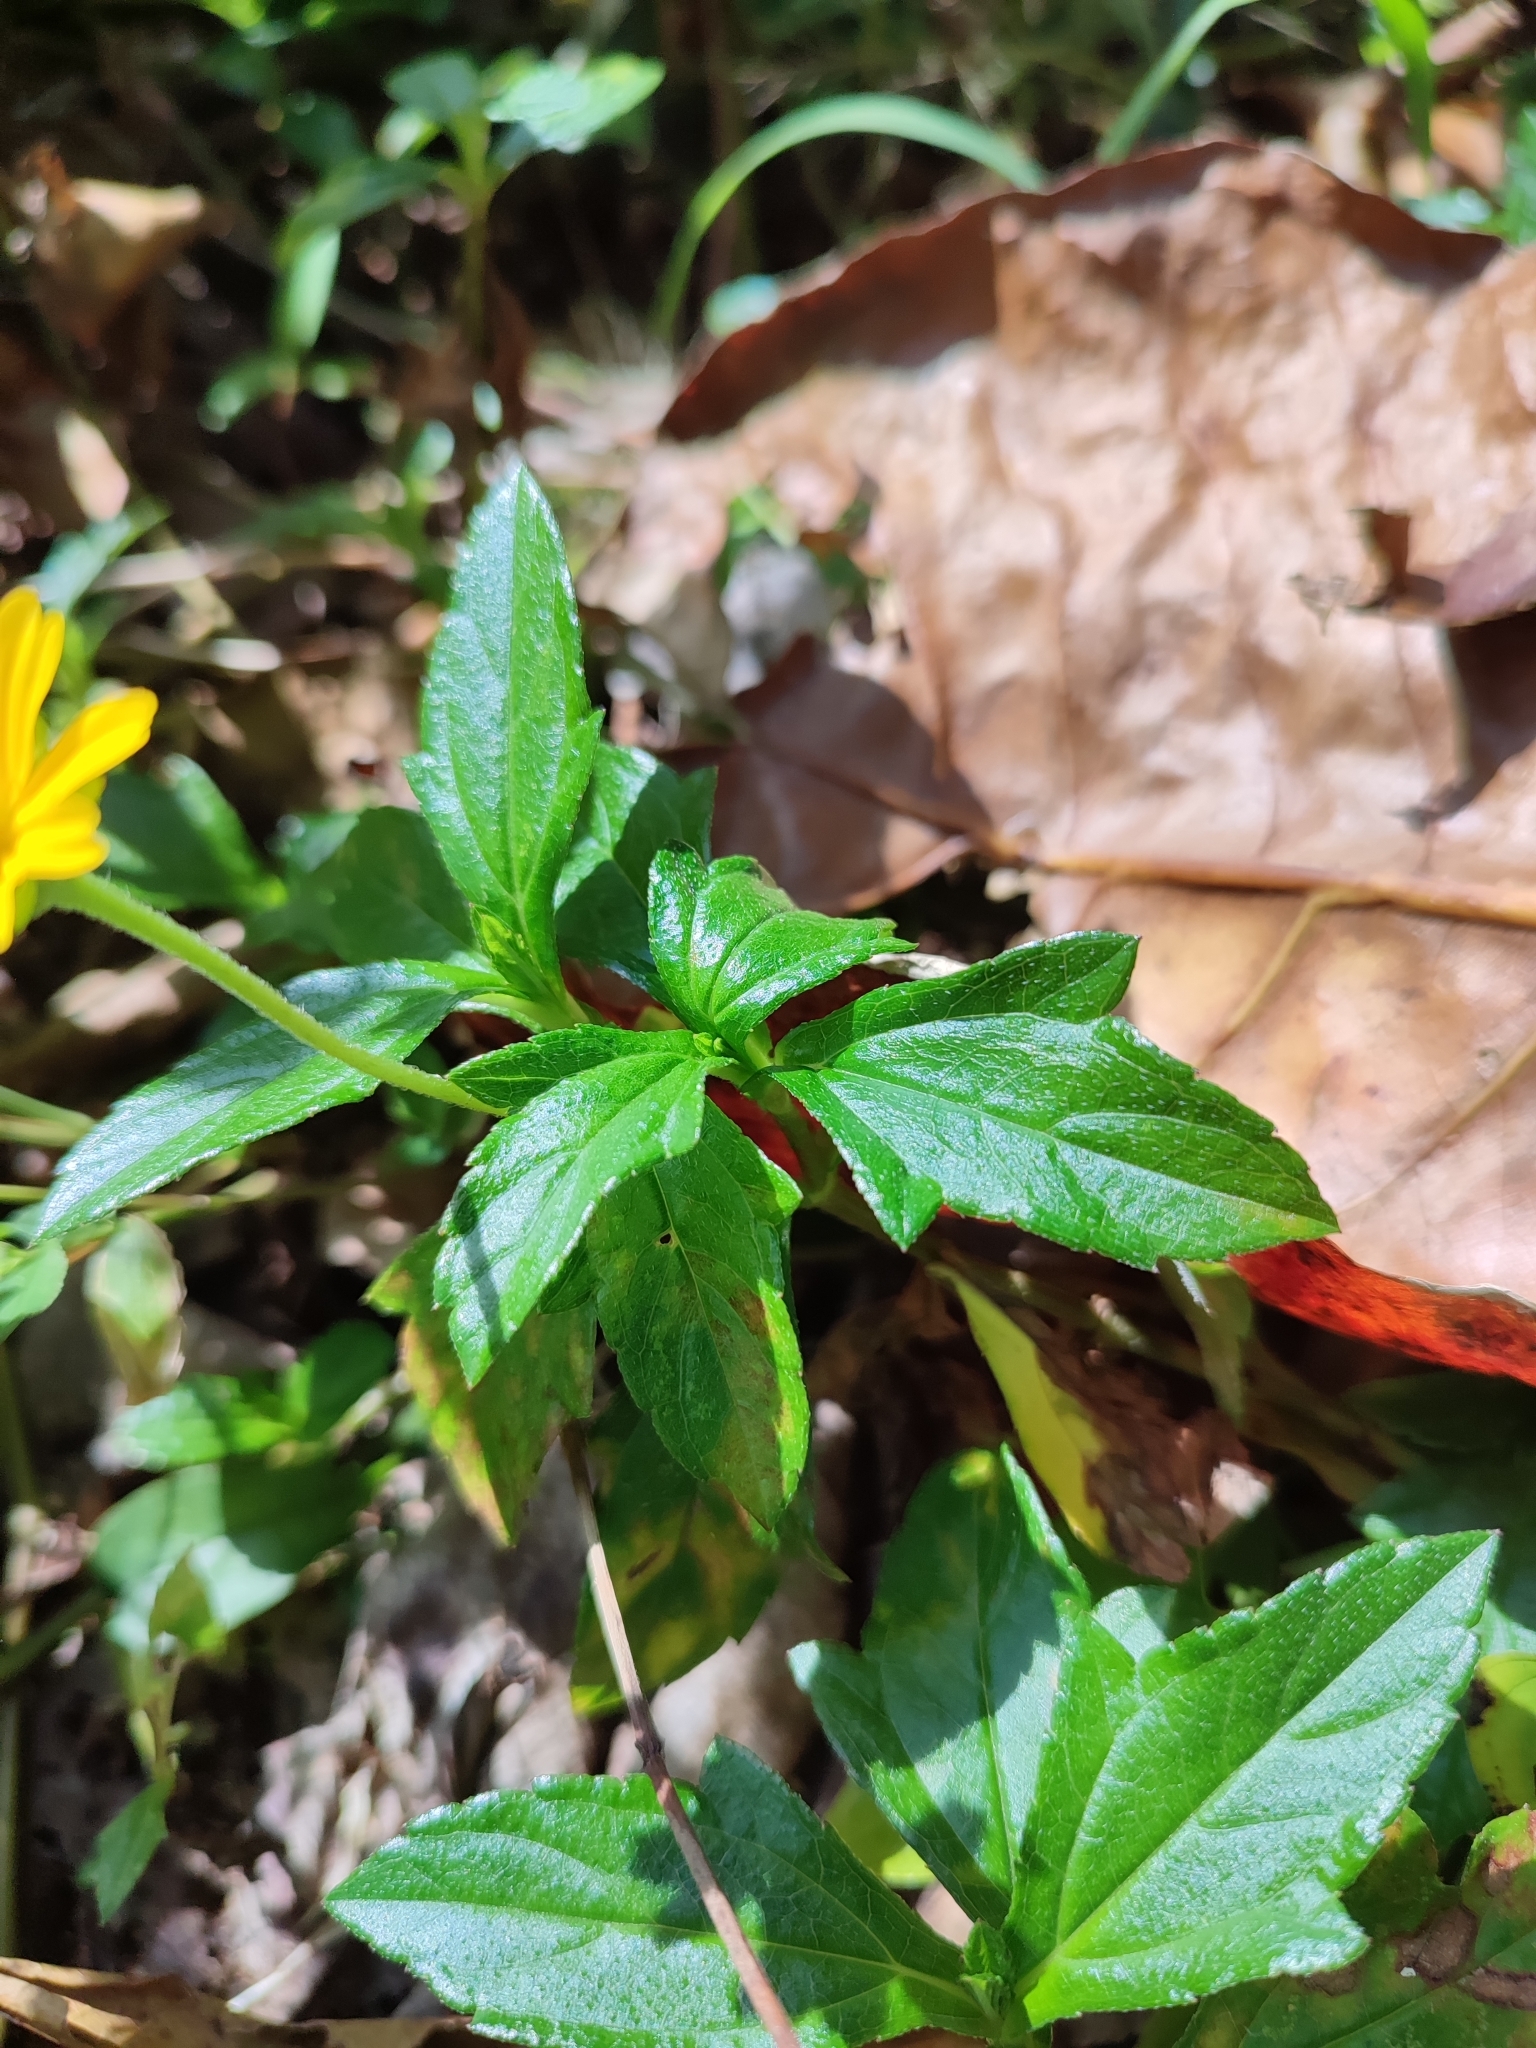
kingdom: Plantae
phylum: Tracheophyta
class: Magnoliopsida
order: Asterales
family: Asteraceae
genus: Sphagneticola
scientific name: Sphagneticola trilobata
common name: Bay biscayne creeping-oxeye
